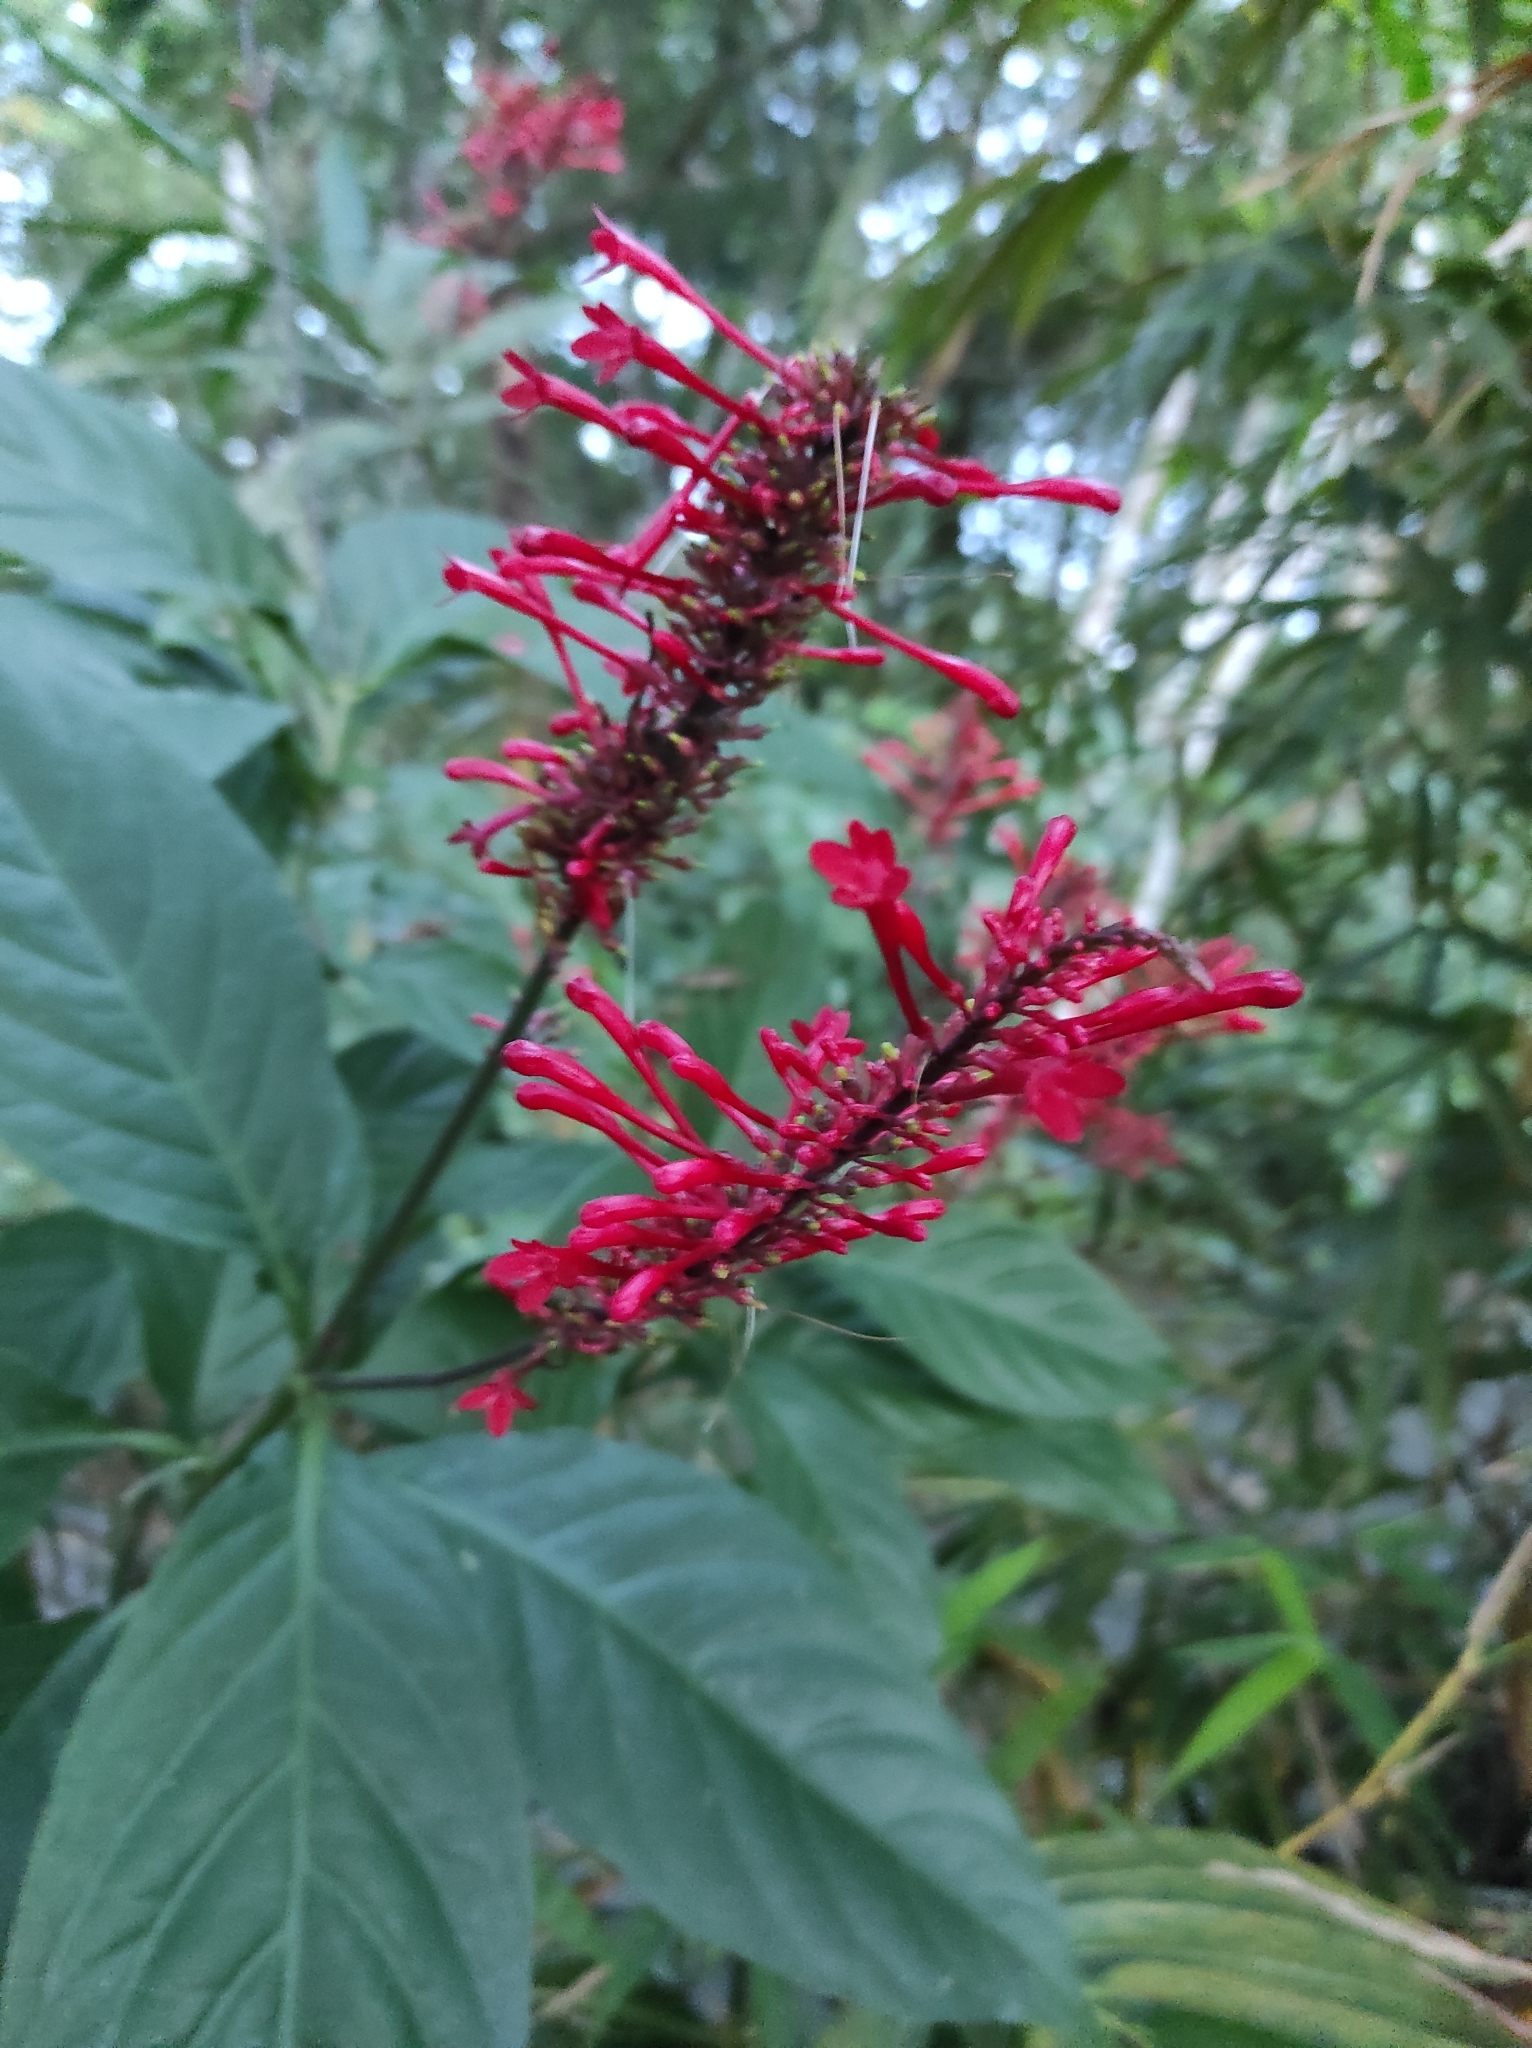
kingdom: Plantae
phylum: Tracheophyta
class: Magnoliopsida
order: Lamiales
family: Acanthaceae
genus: Odontonema
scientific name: Odontonema tubaeforme
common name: Firespike
